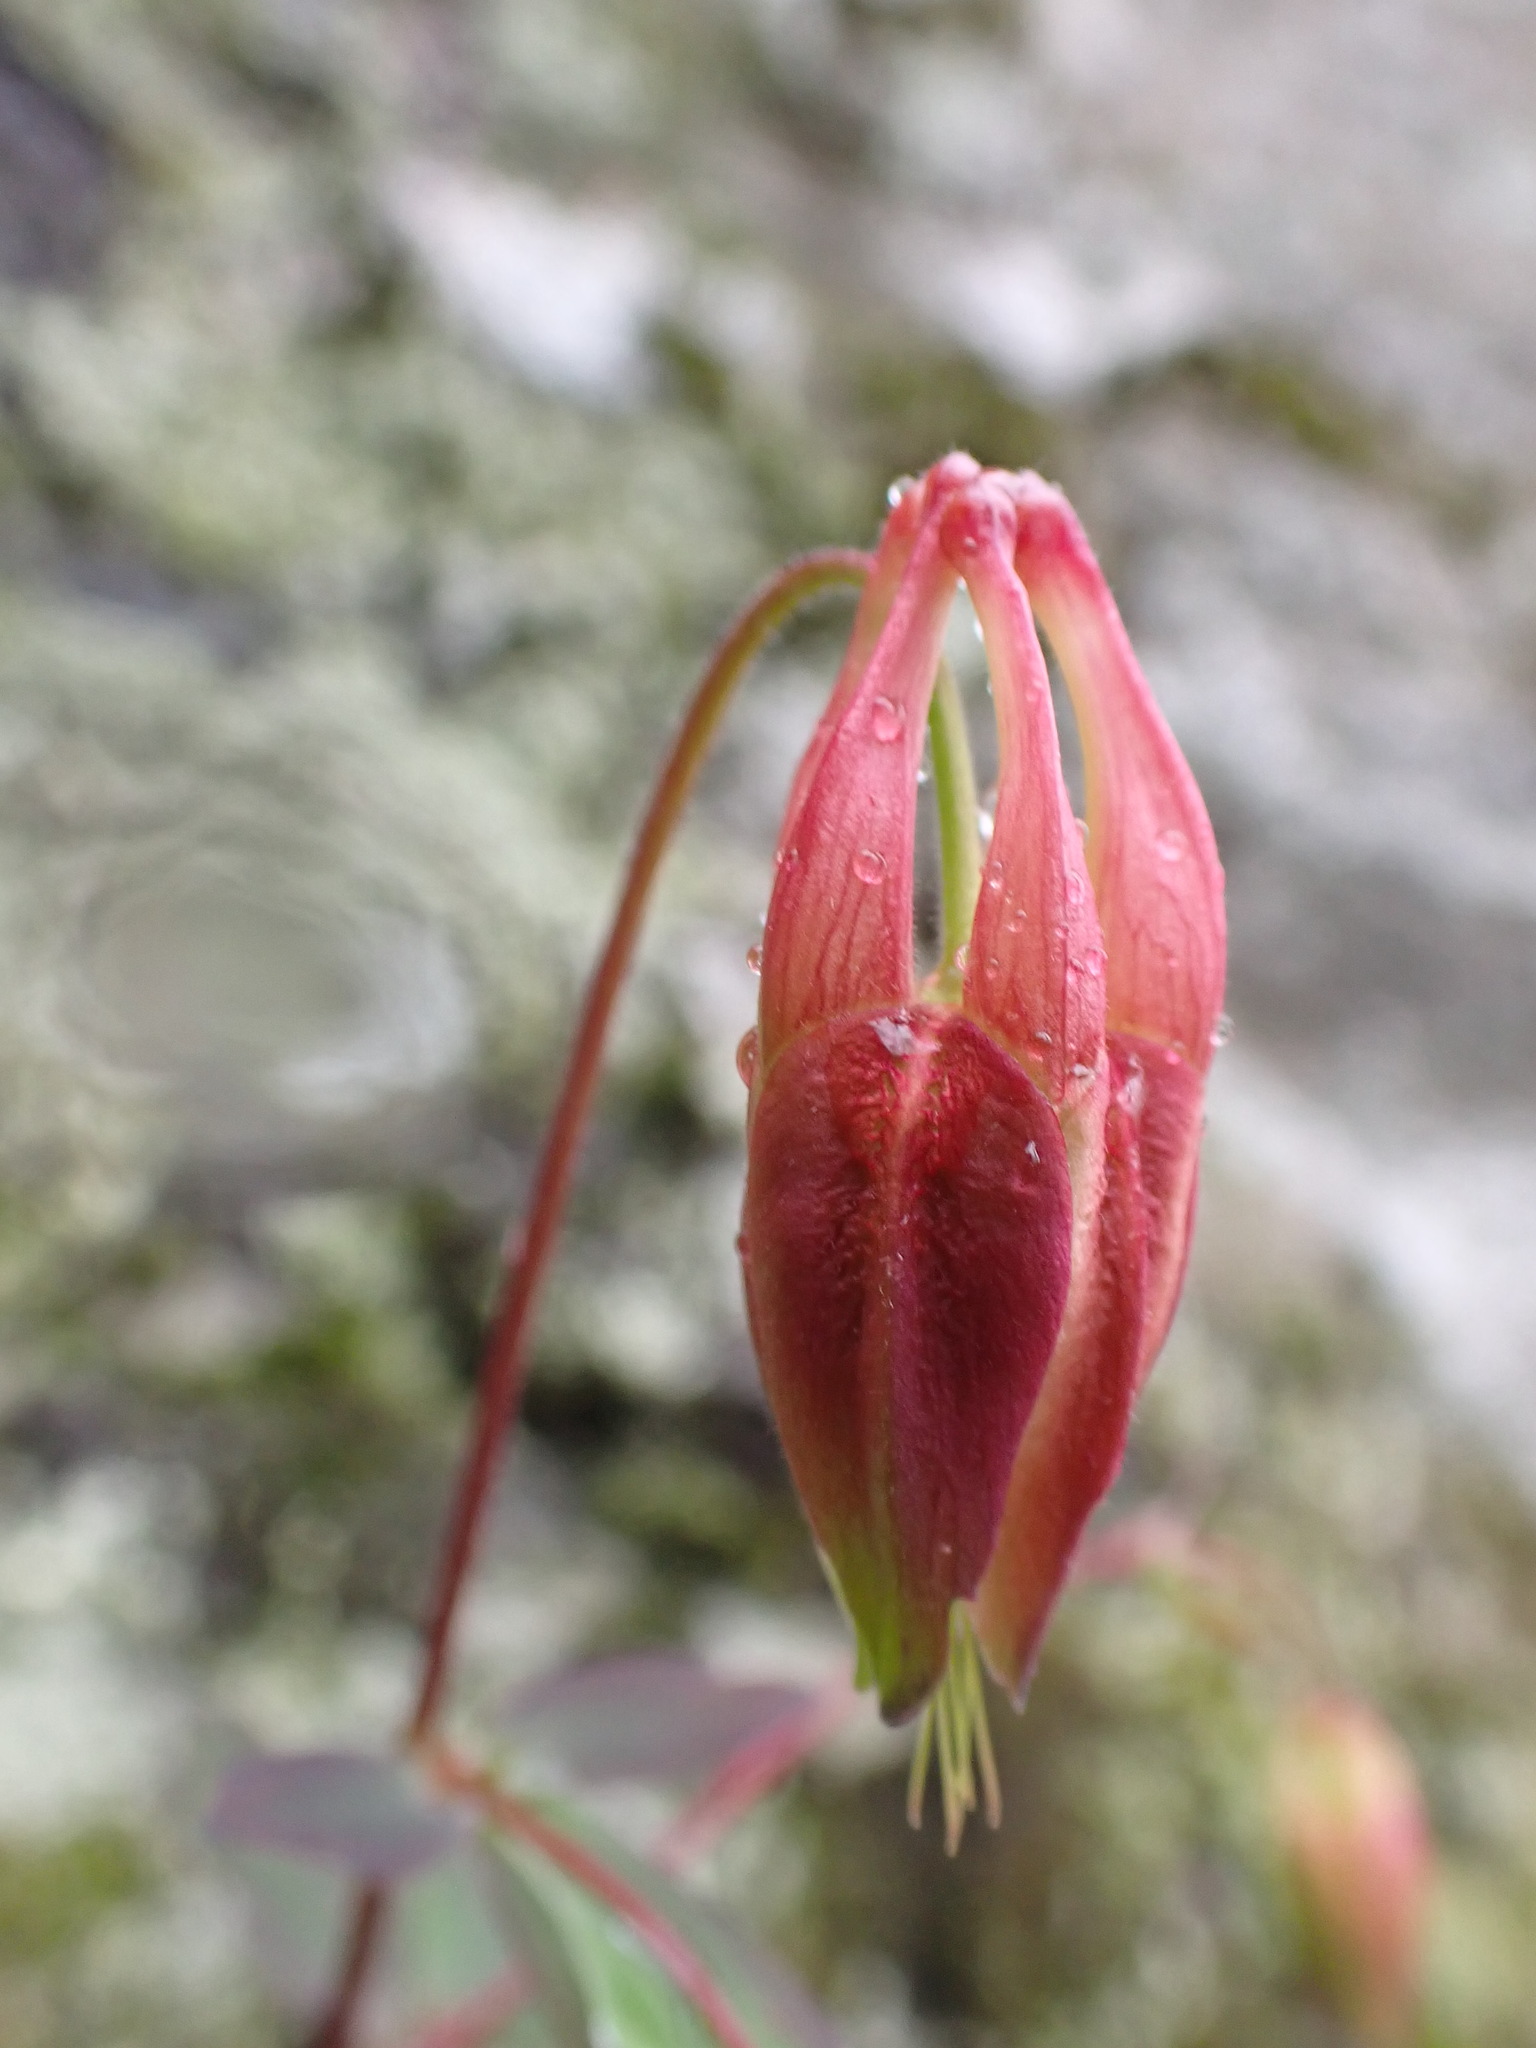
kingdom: Plantae
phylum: Tracheophyta
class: Magnoliopsida
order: Ranunculales
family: Ranunculaceae
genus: Aquilegia
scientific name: Aquilegia canadensis
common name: American columbine
